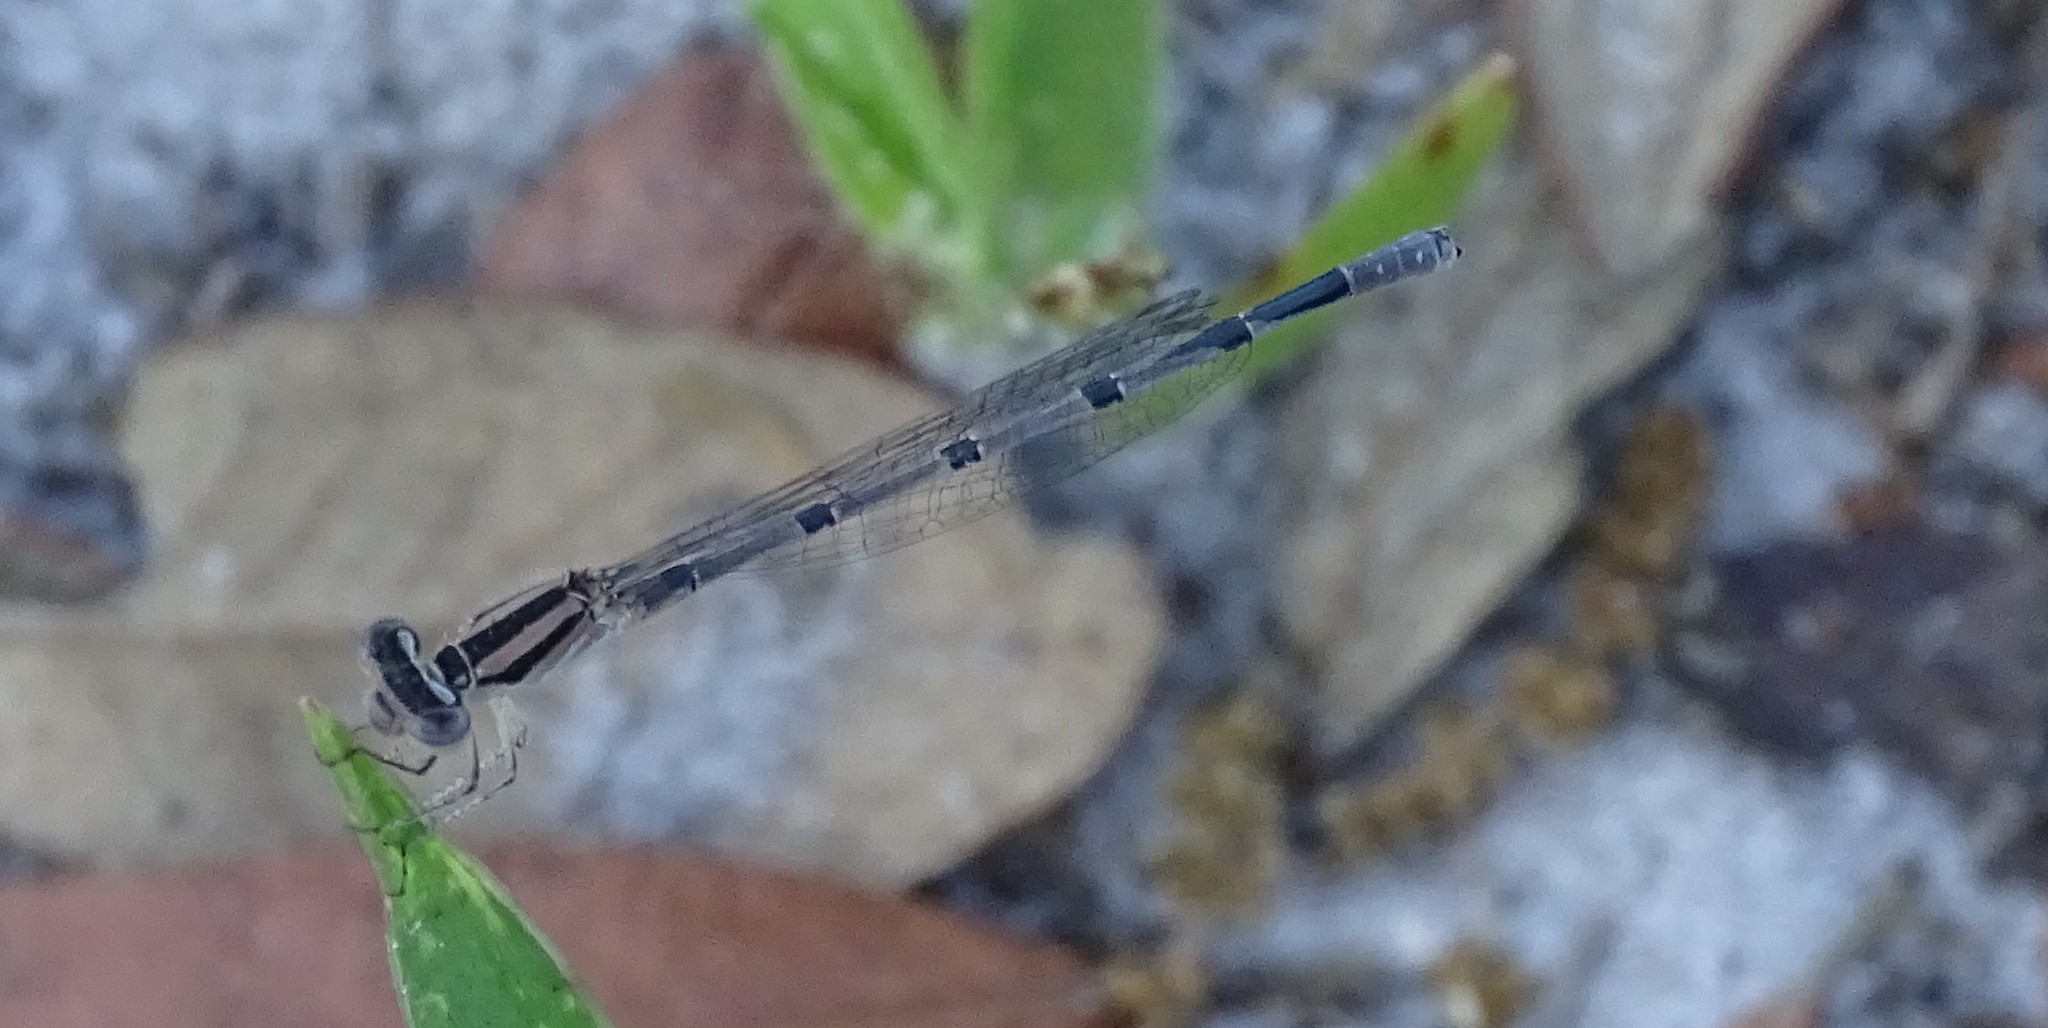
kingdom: Animalia
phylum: Arthropoda
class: Insecta
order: Odonata
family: Coenagrionidae
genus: Enallagma
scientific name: Enallagma doubledayi
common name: Atlantic bluet
